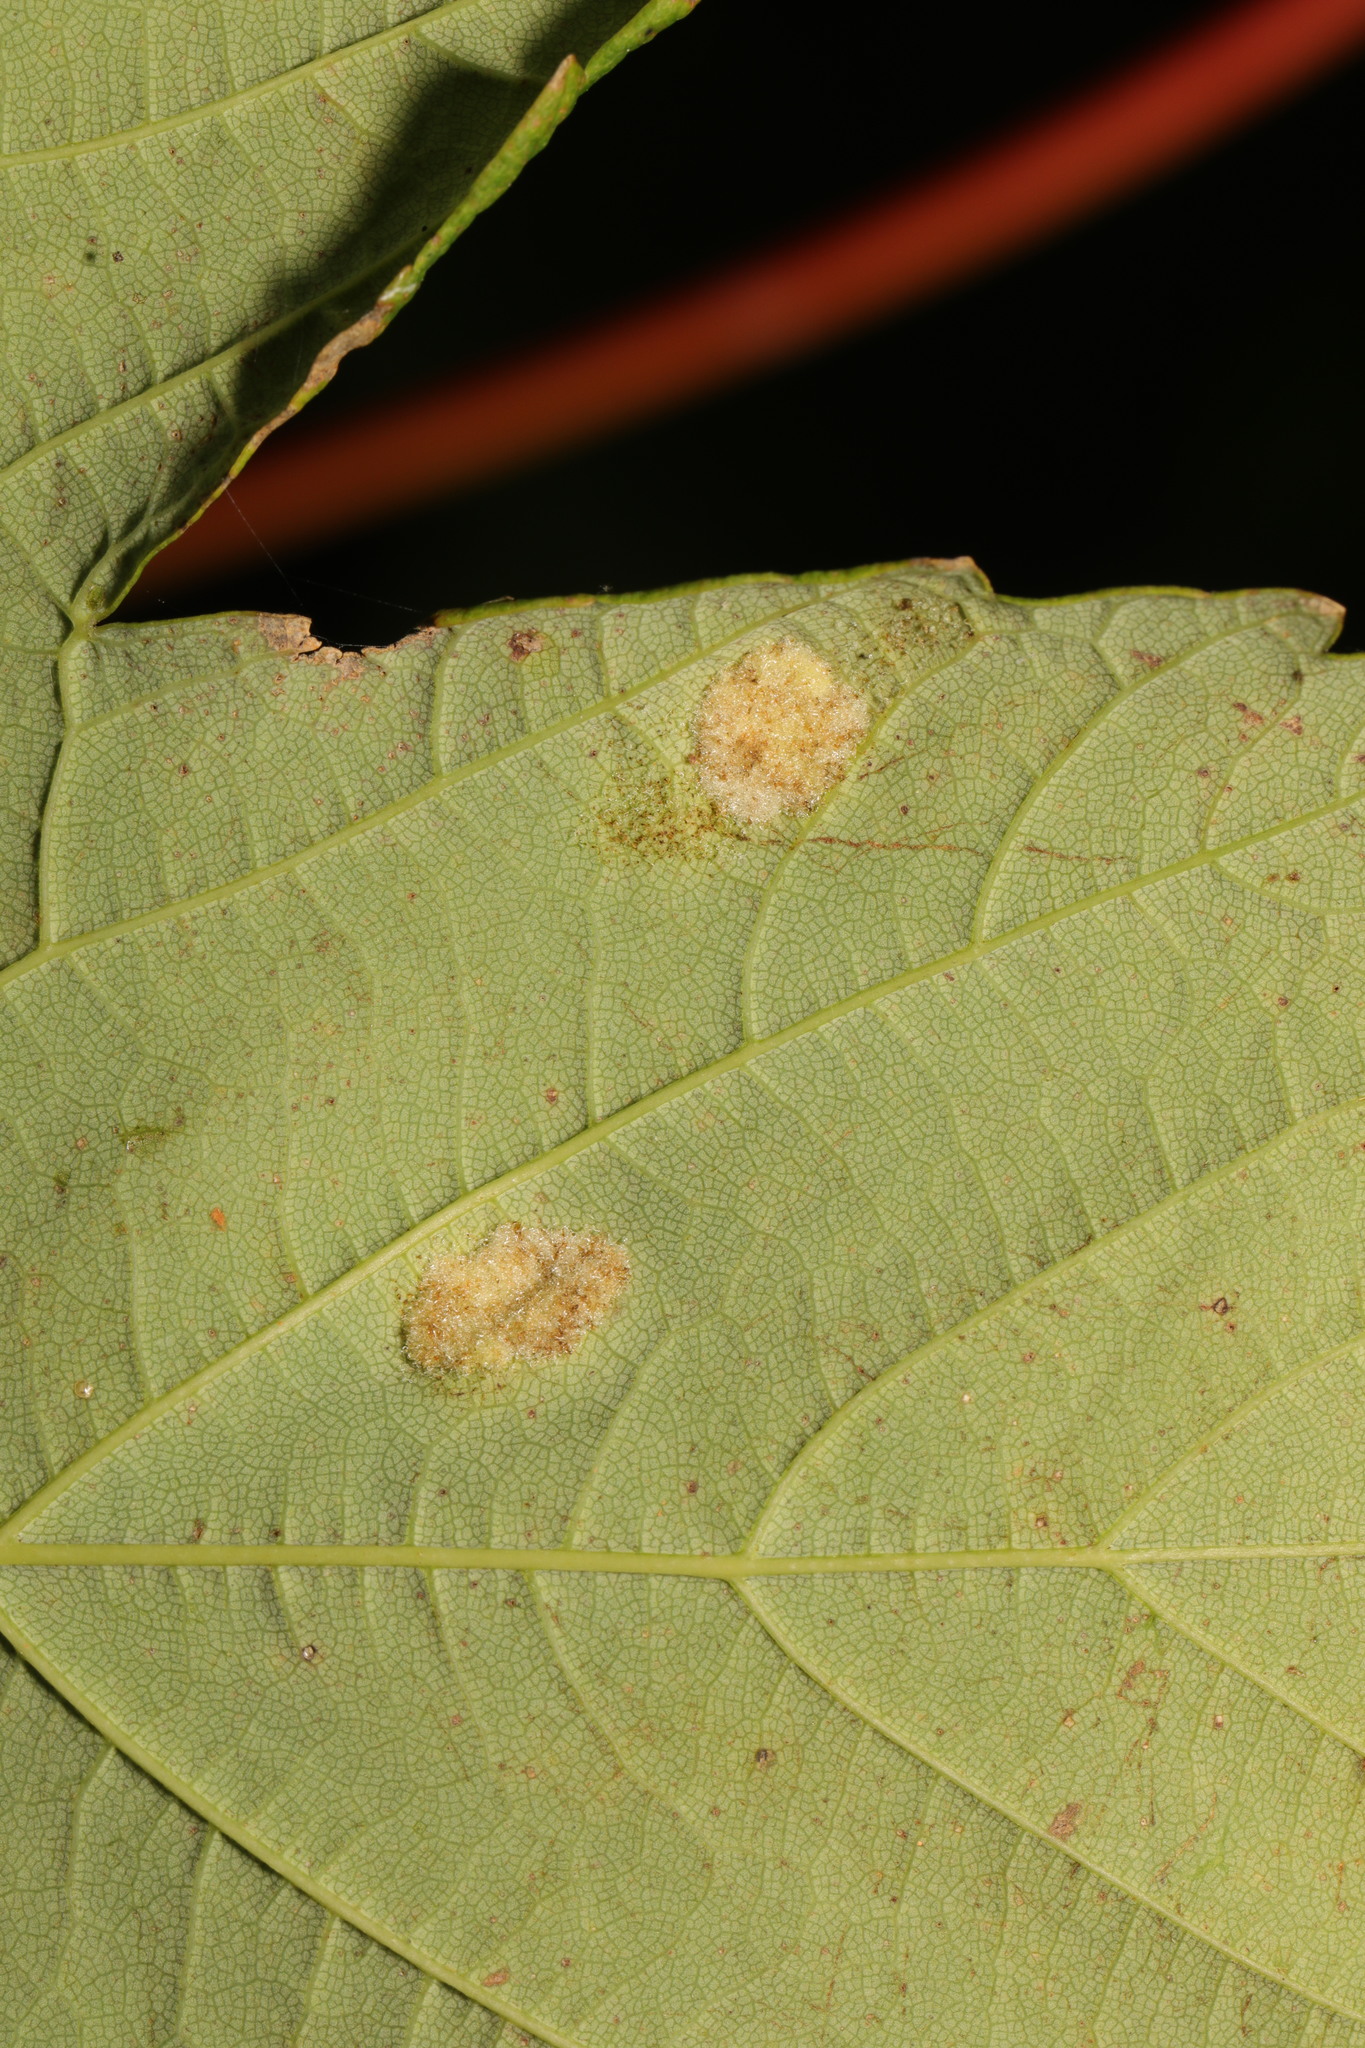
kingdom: Animalia
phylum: Arthropoda
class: Arachnida
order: Trombidiformes
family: Eriophyidae
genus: Aceria
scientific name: Aceria pseudoplatani
